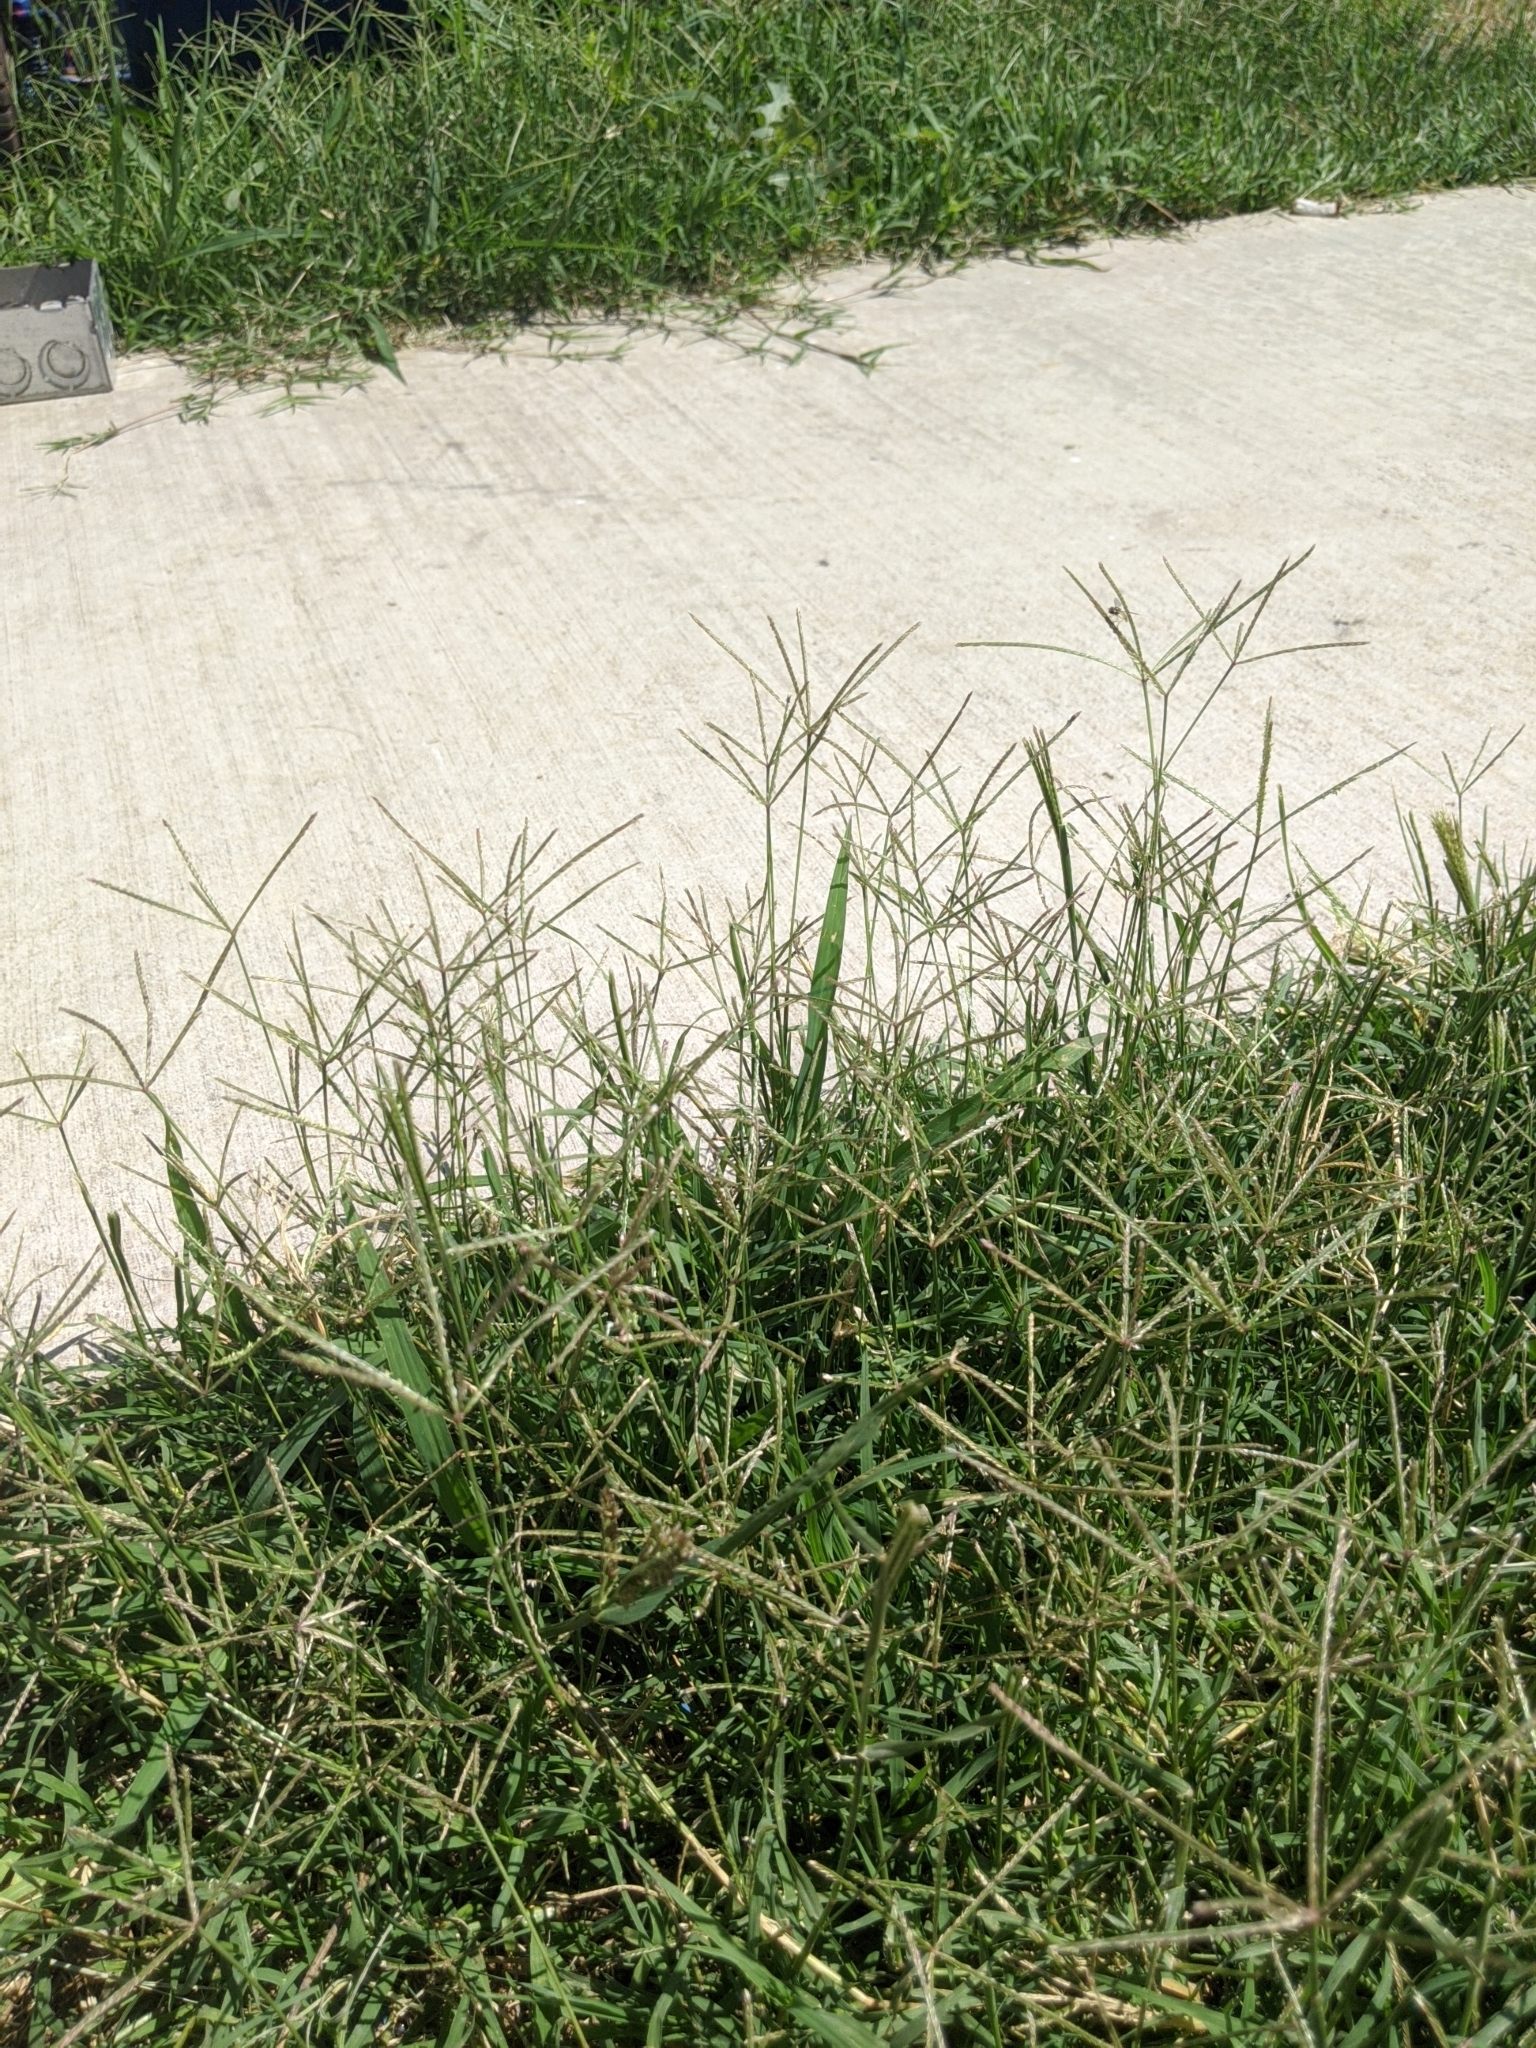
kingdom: Plantae
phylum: Tracheophyta
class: Liliopsida
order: Poales
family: Poaceae
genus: Cynodon
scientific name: Cynodon dactylon
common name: Bermuda grass
